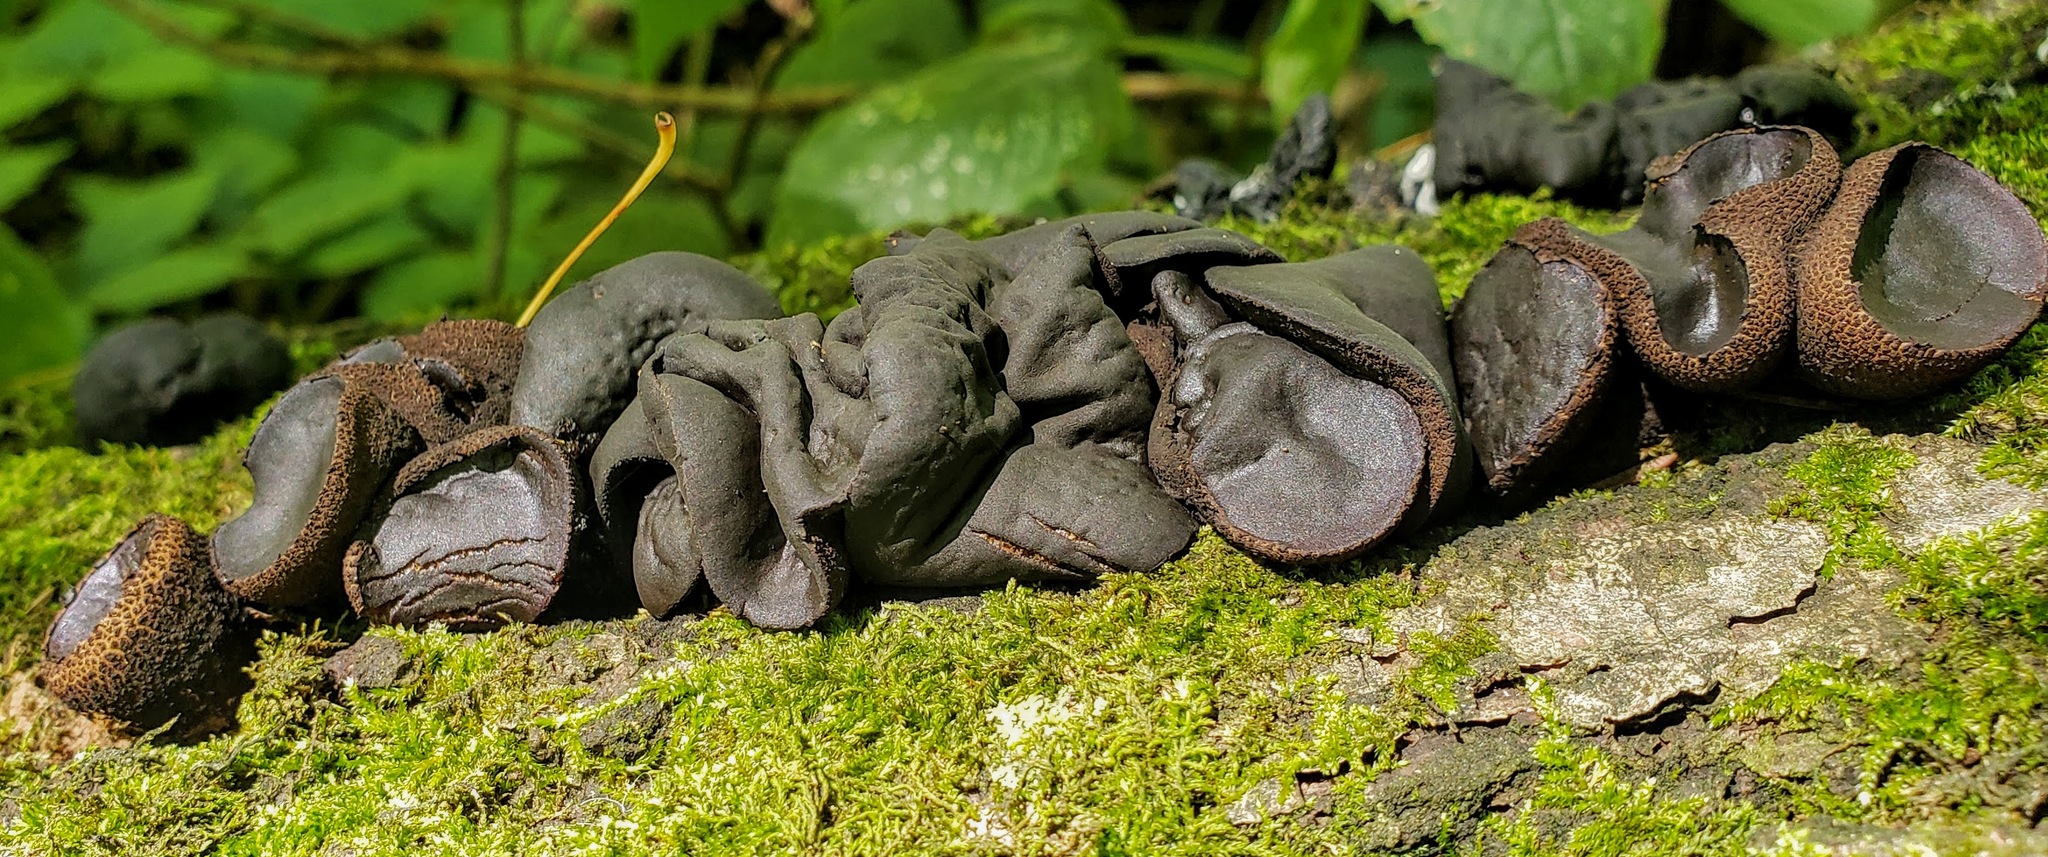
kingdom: Fungi
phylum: Ascomycota
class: Leotiomycetes
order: Phacidiales
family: Phacidiaceae
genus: Bulgaria
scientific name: Bulgaria inquinans
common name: Black bulgar
